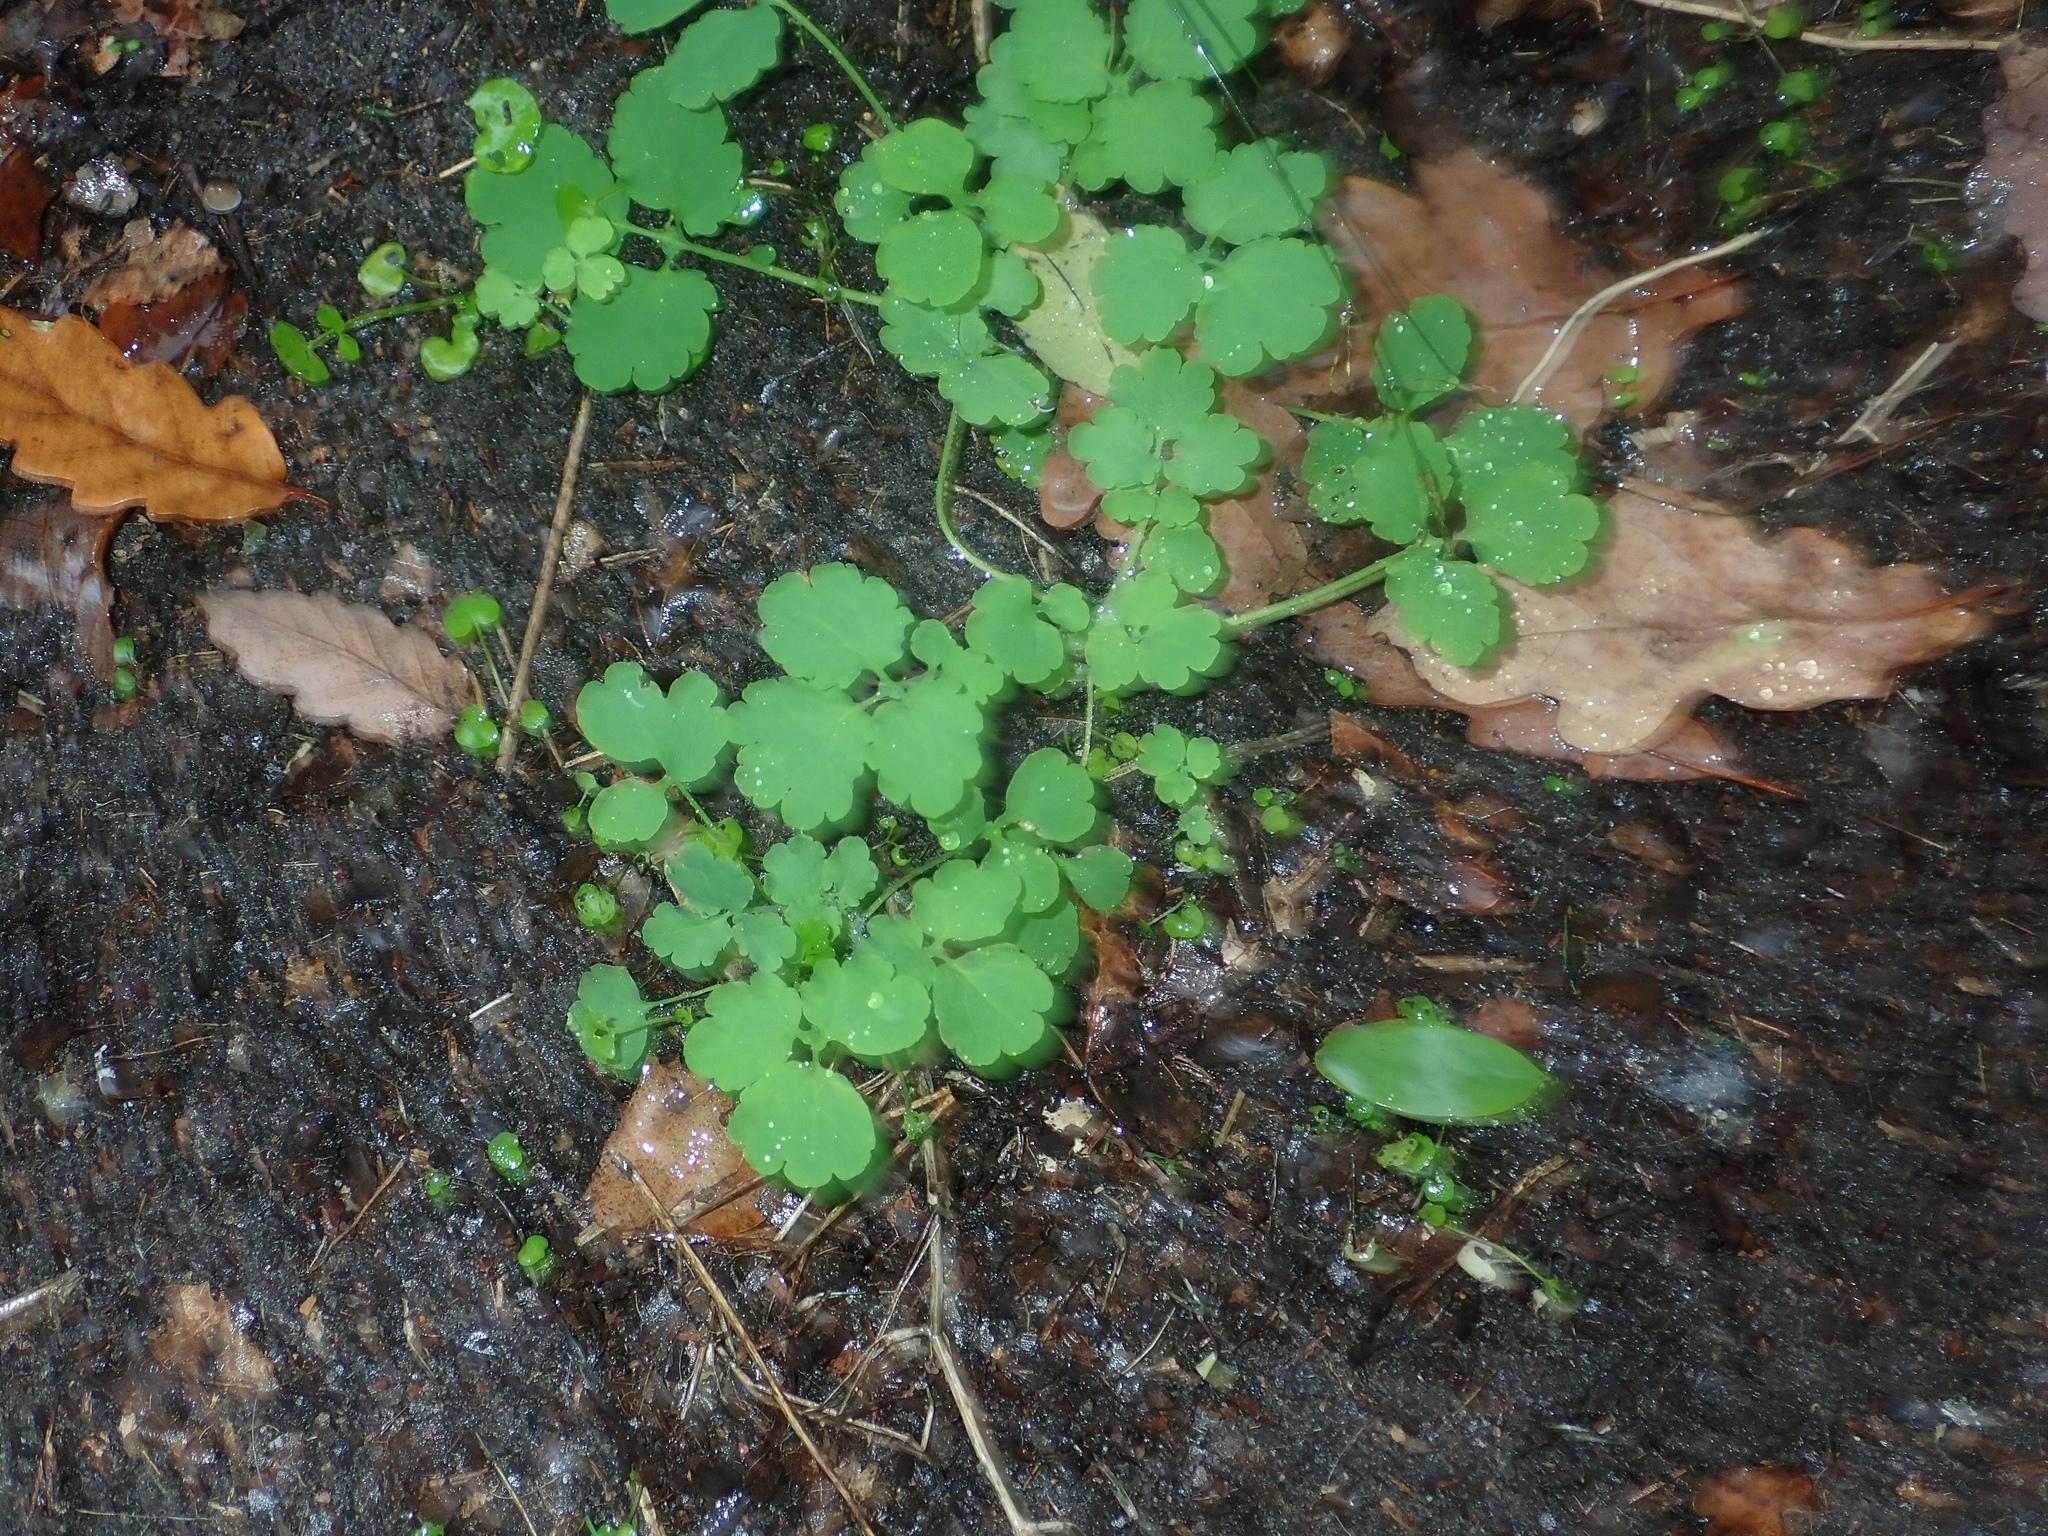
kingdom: Plantae
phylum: Tracheophyta
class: Magnoliopsida
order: Ranunculales
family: Papaveraceae
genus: Chelidonium
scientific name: Chelidonium majus
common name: Greater celandine
